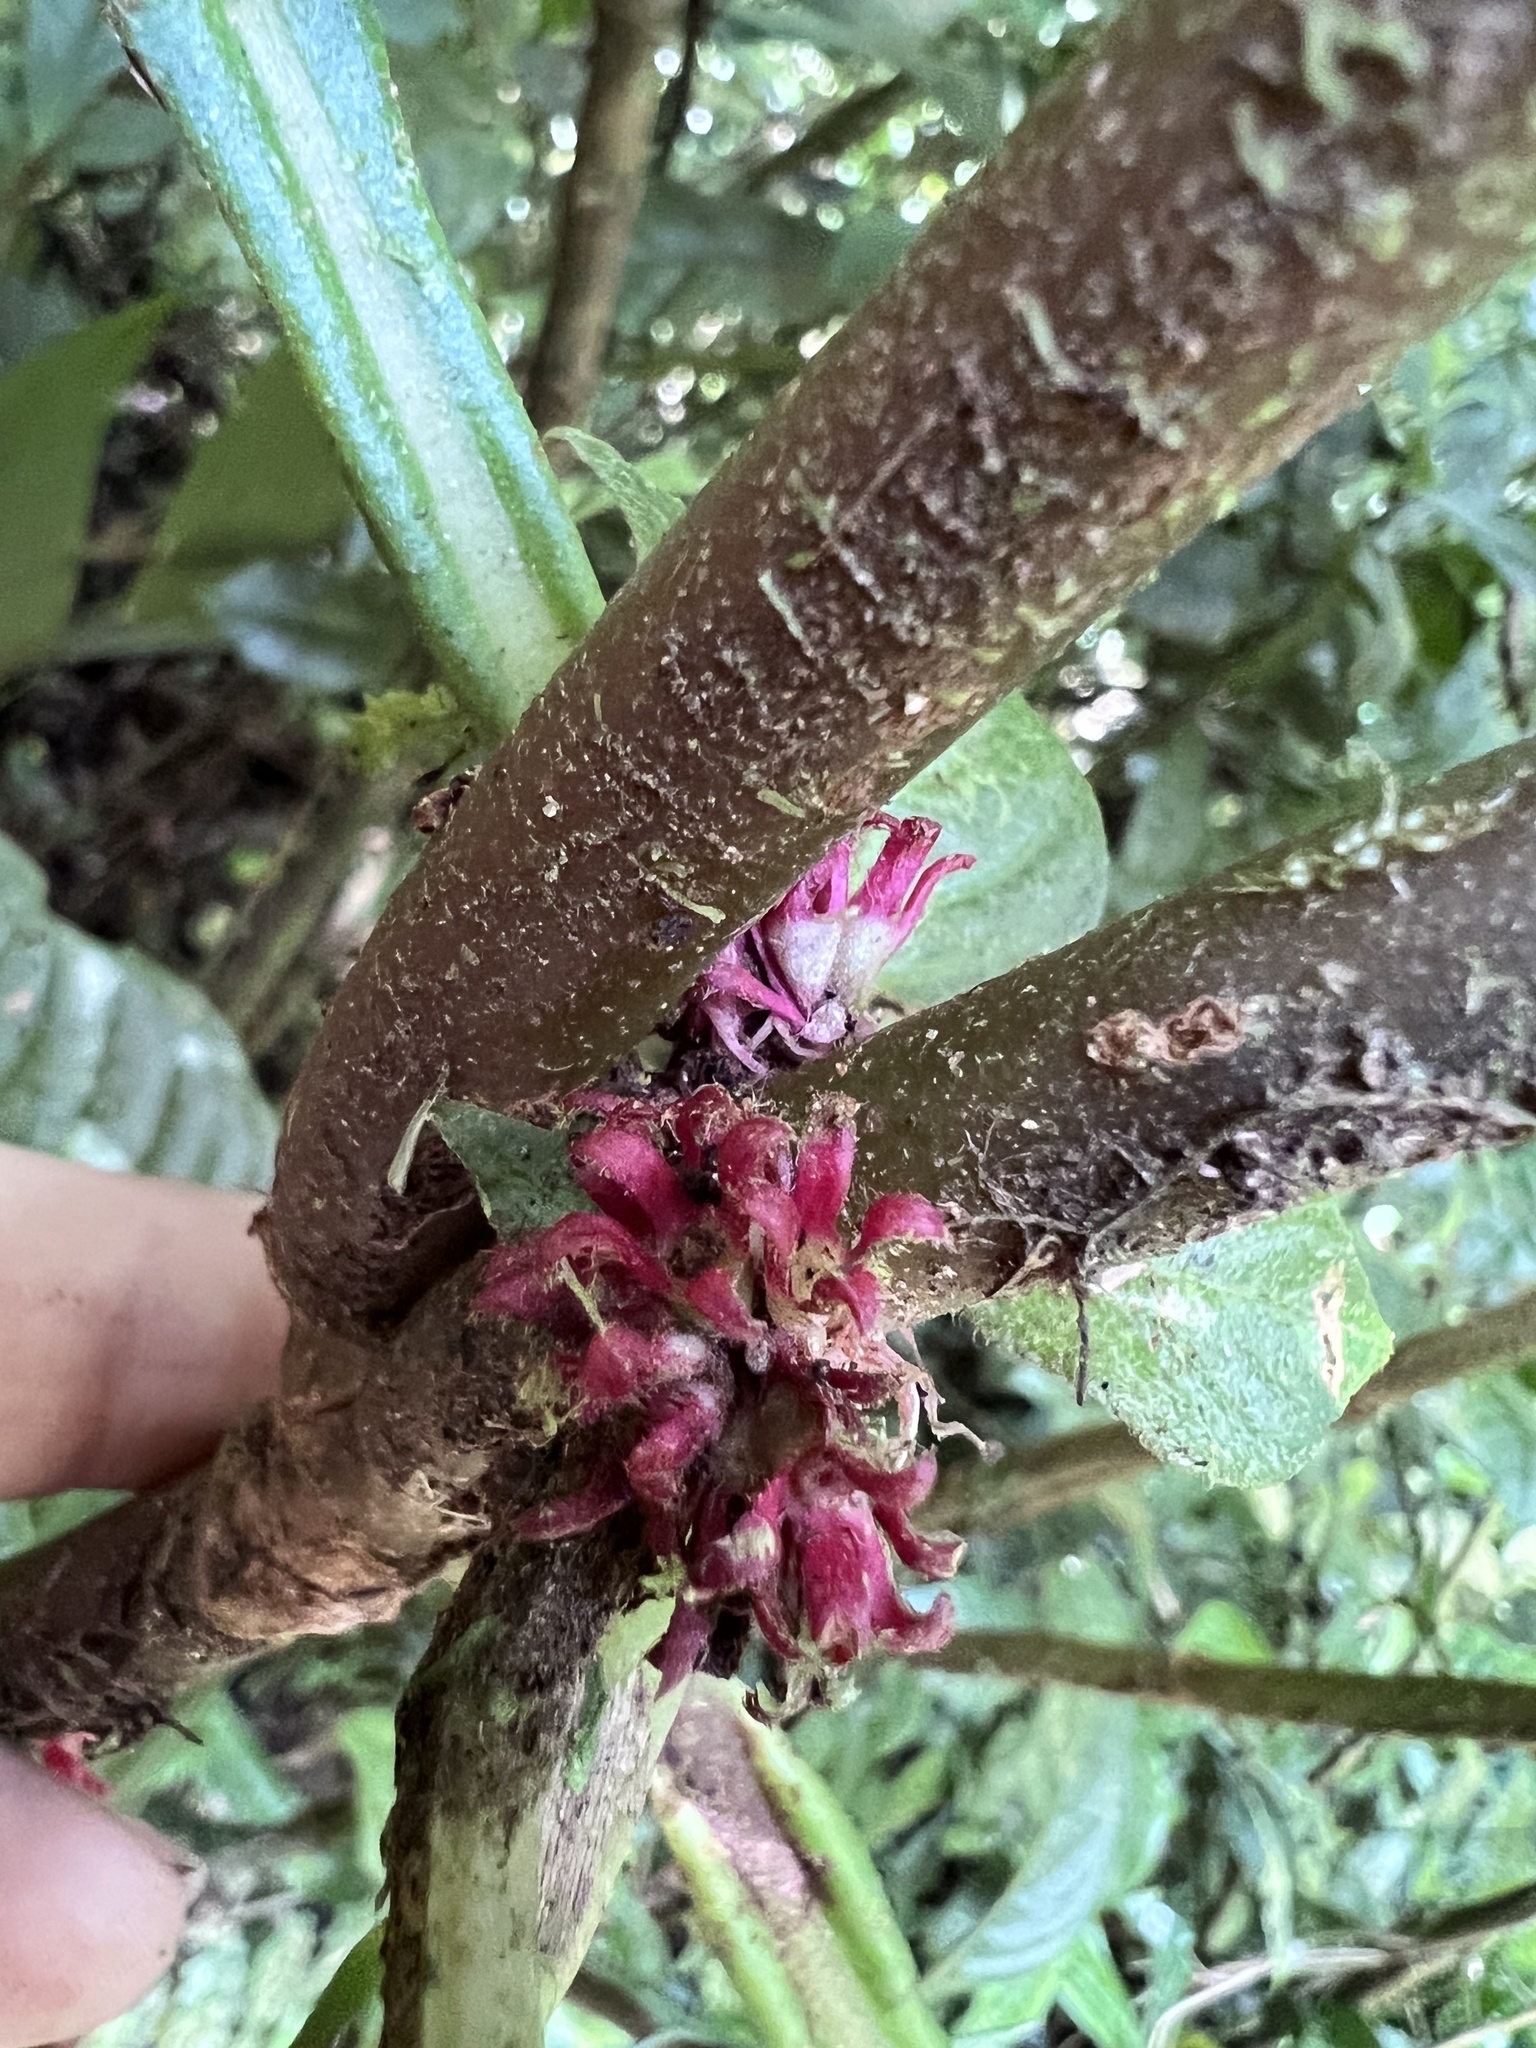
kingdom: Plantae
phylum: Tracheophyta
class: Magnoliopsida
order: Gentianales
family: Rubiaceae
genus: Hoffmannia
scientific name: Hoffmannia congesta
